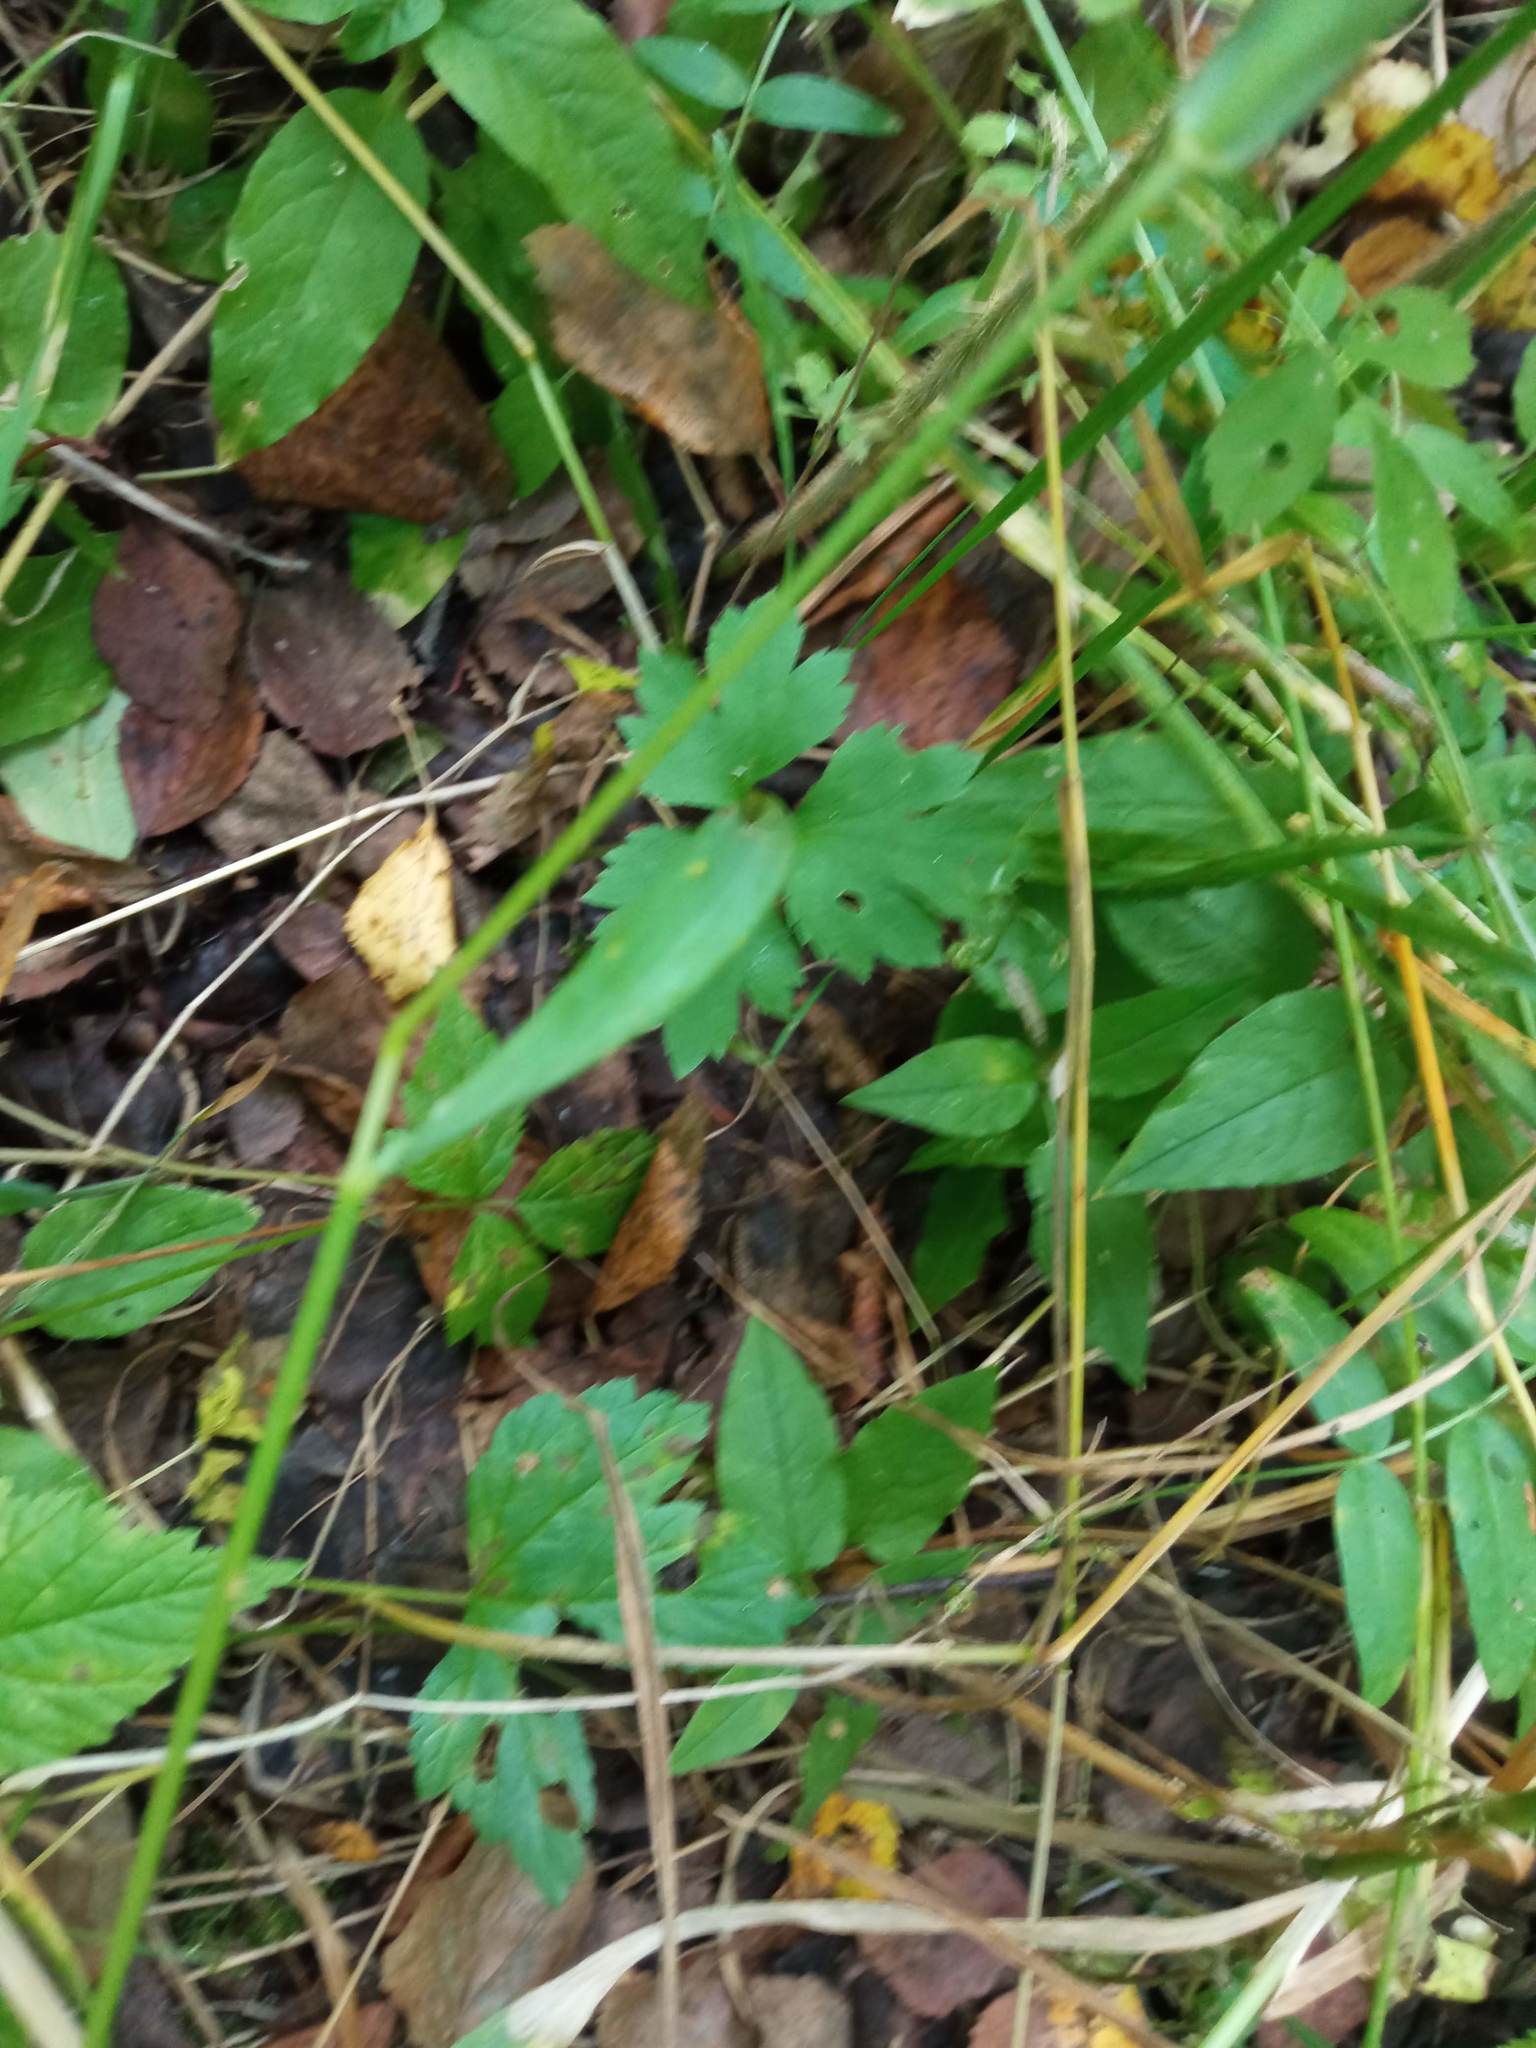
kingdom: Plantae
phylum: Tracheophyta
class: Magnoliopsida
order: Ranunculales
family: Ranunculaceae
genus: Ranunculus
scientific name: Ranunculus repens
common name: Creeping buttercup
